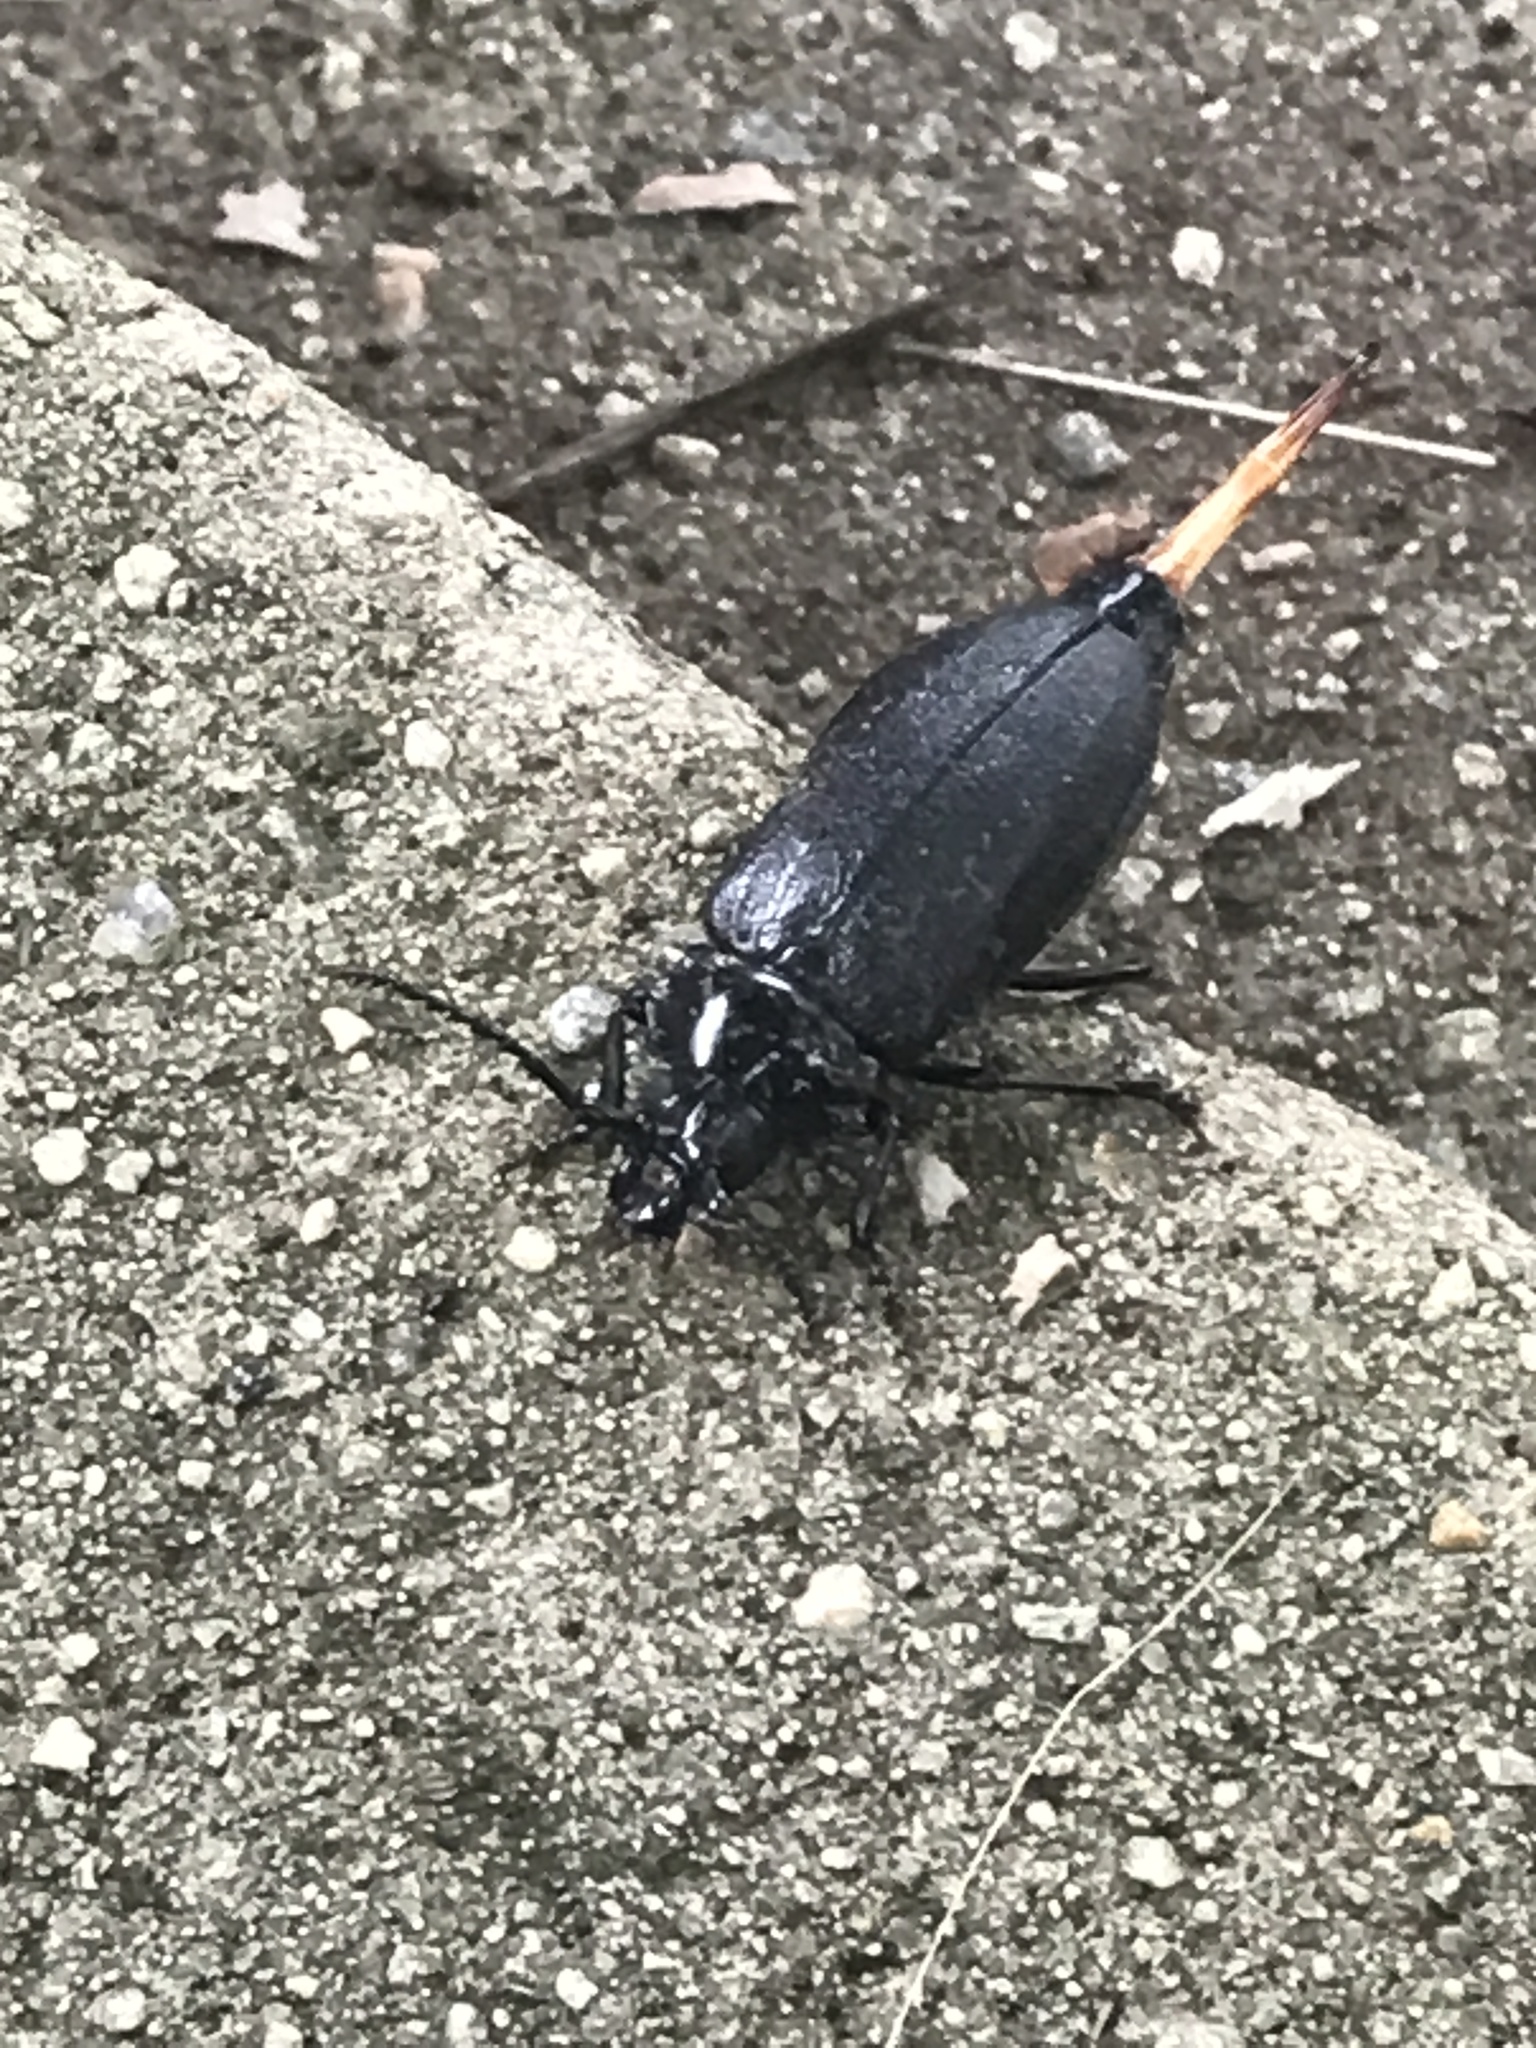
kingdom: Animalia
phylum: Arthropoda
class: Insecta
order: Coleoptera
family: Cerambycidae
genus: Prionus
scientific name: Prionus laticollis
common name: Broad necked prionus
